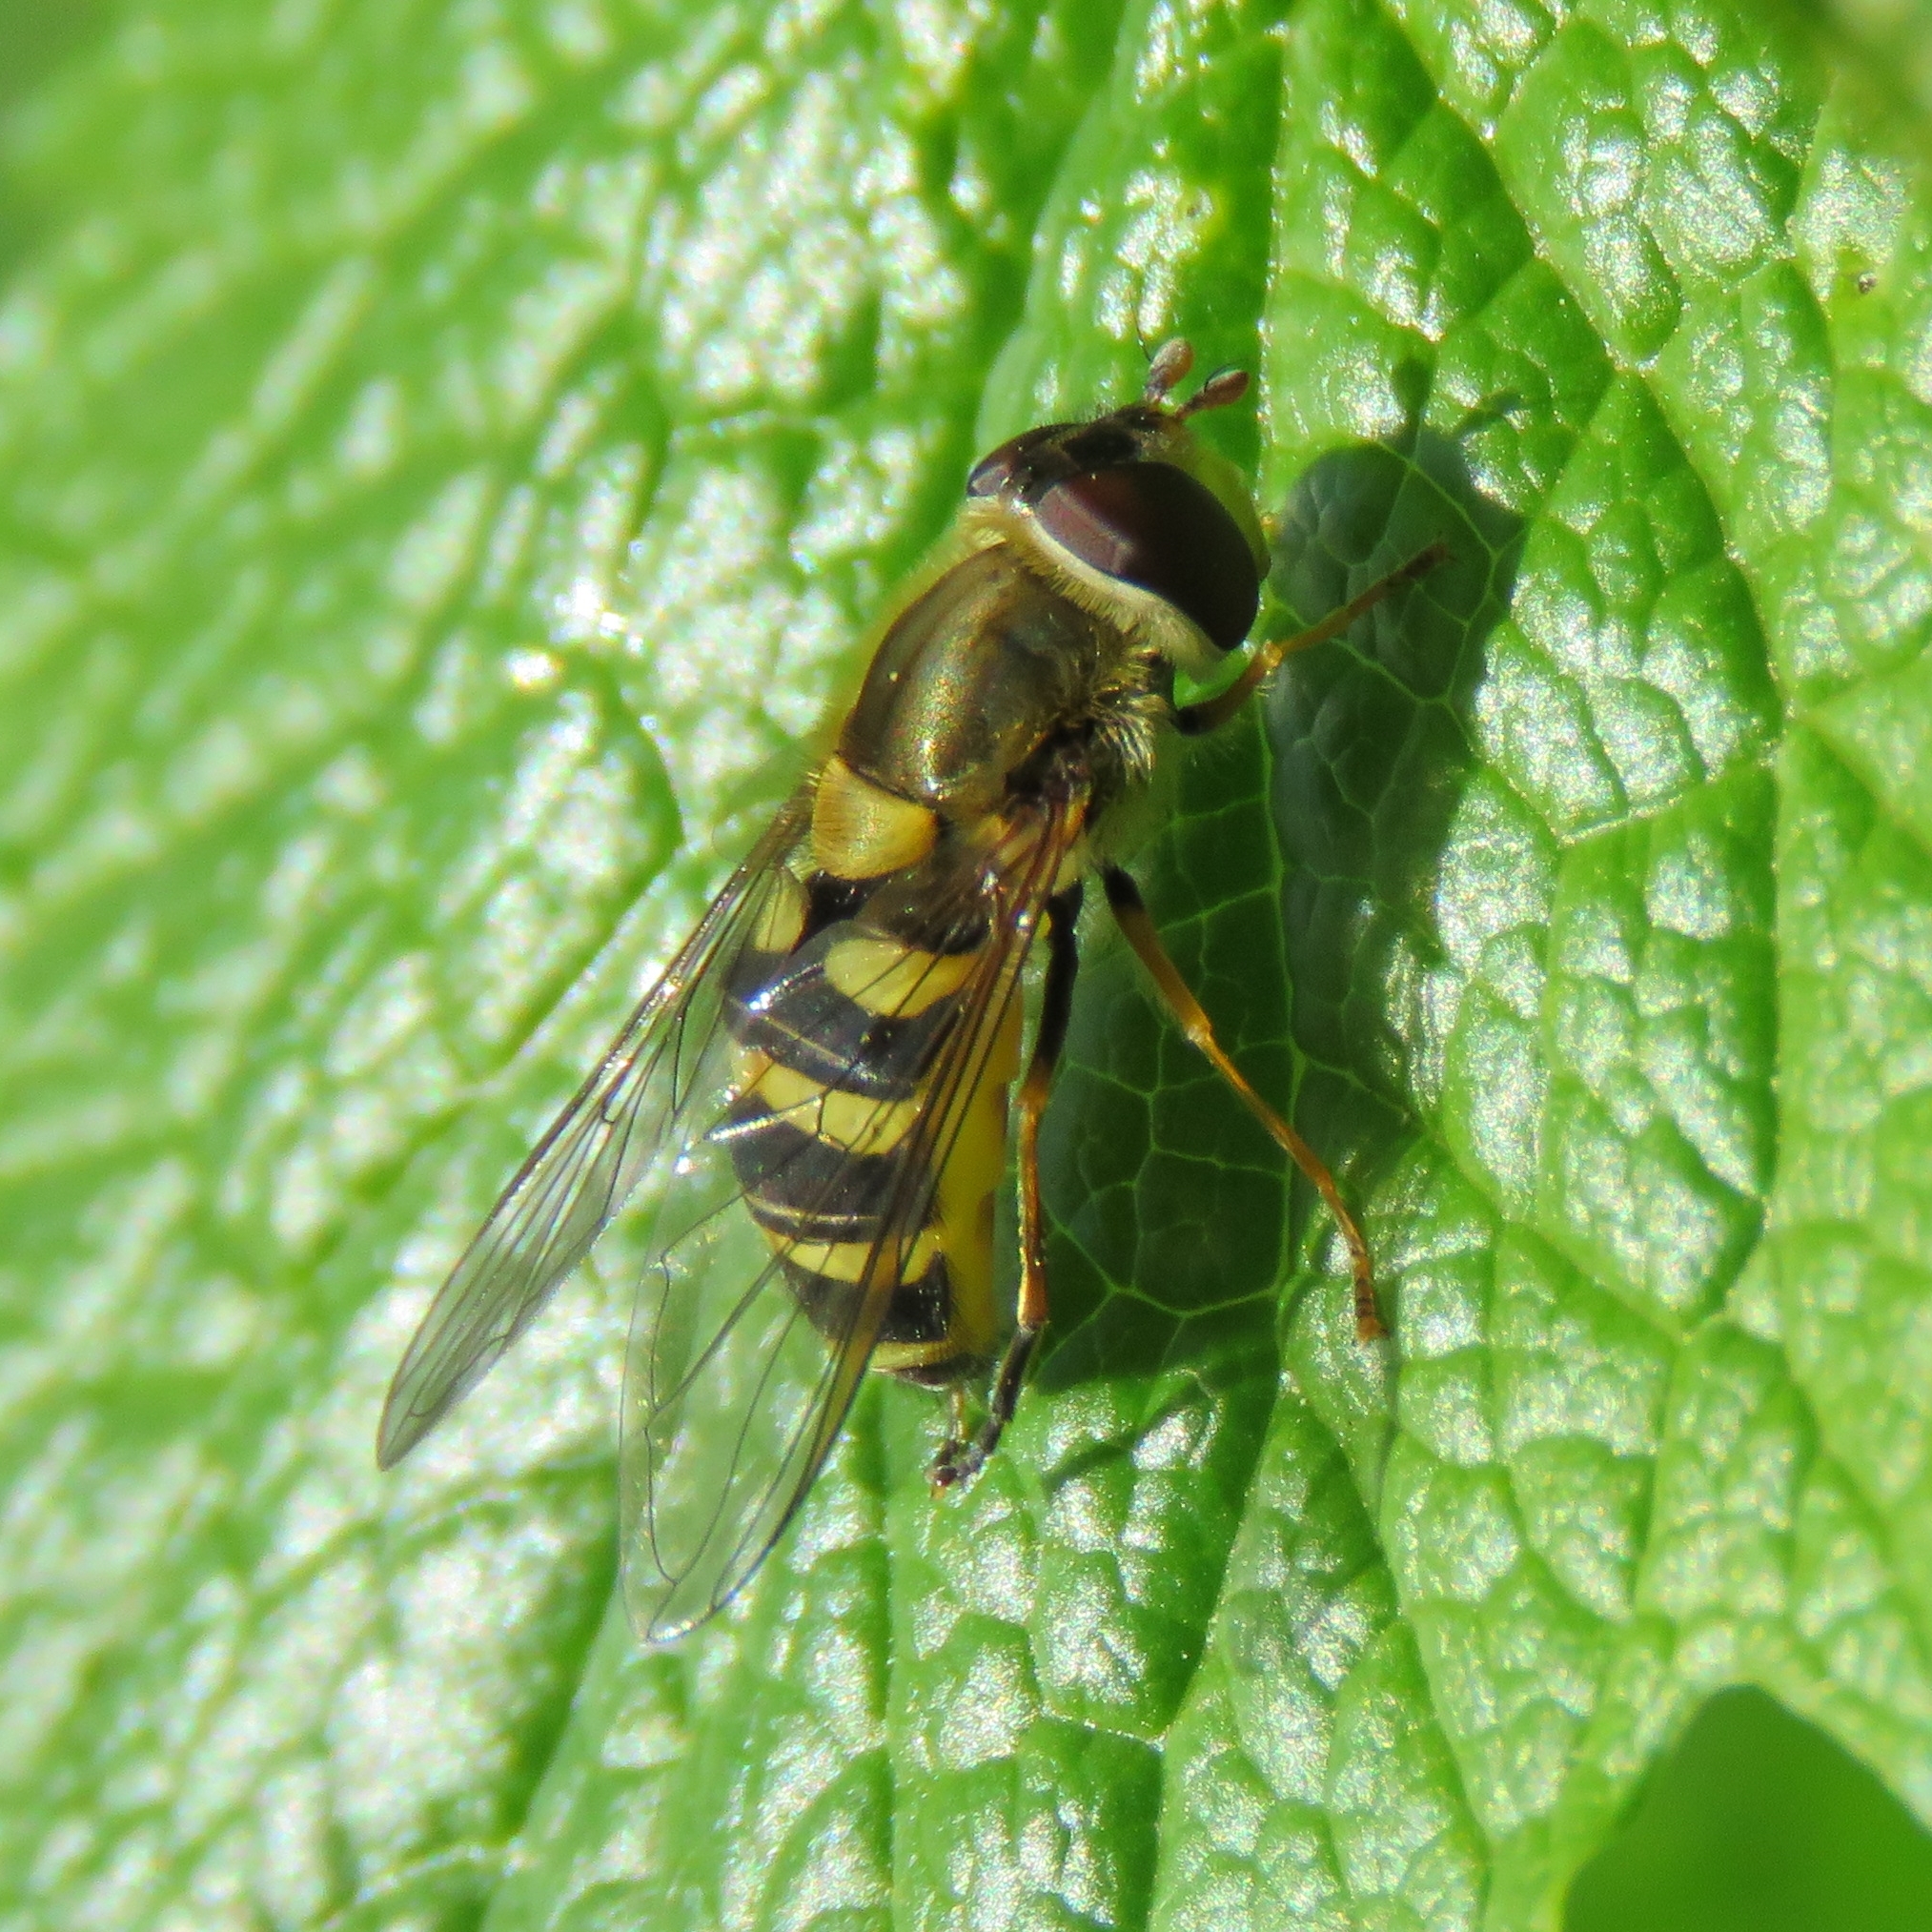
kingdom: Animalia
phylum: Arthropoda
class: Insecta
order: Diptera
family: Syrphidae
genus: Syrphus
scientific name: Syrphus
